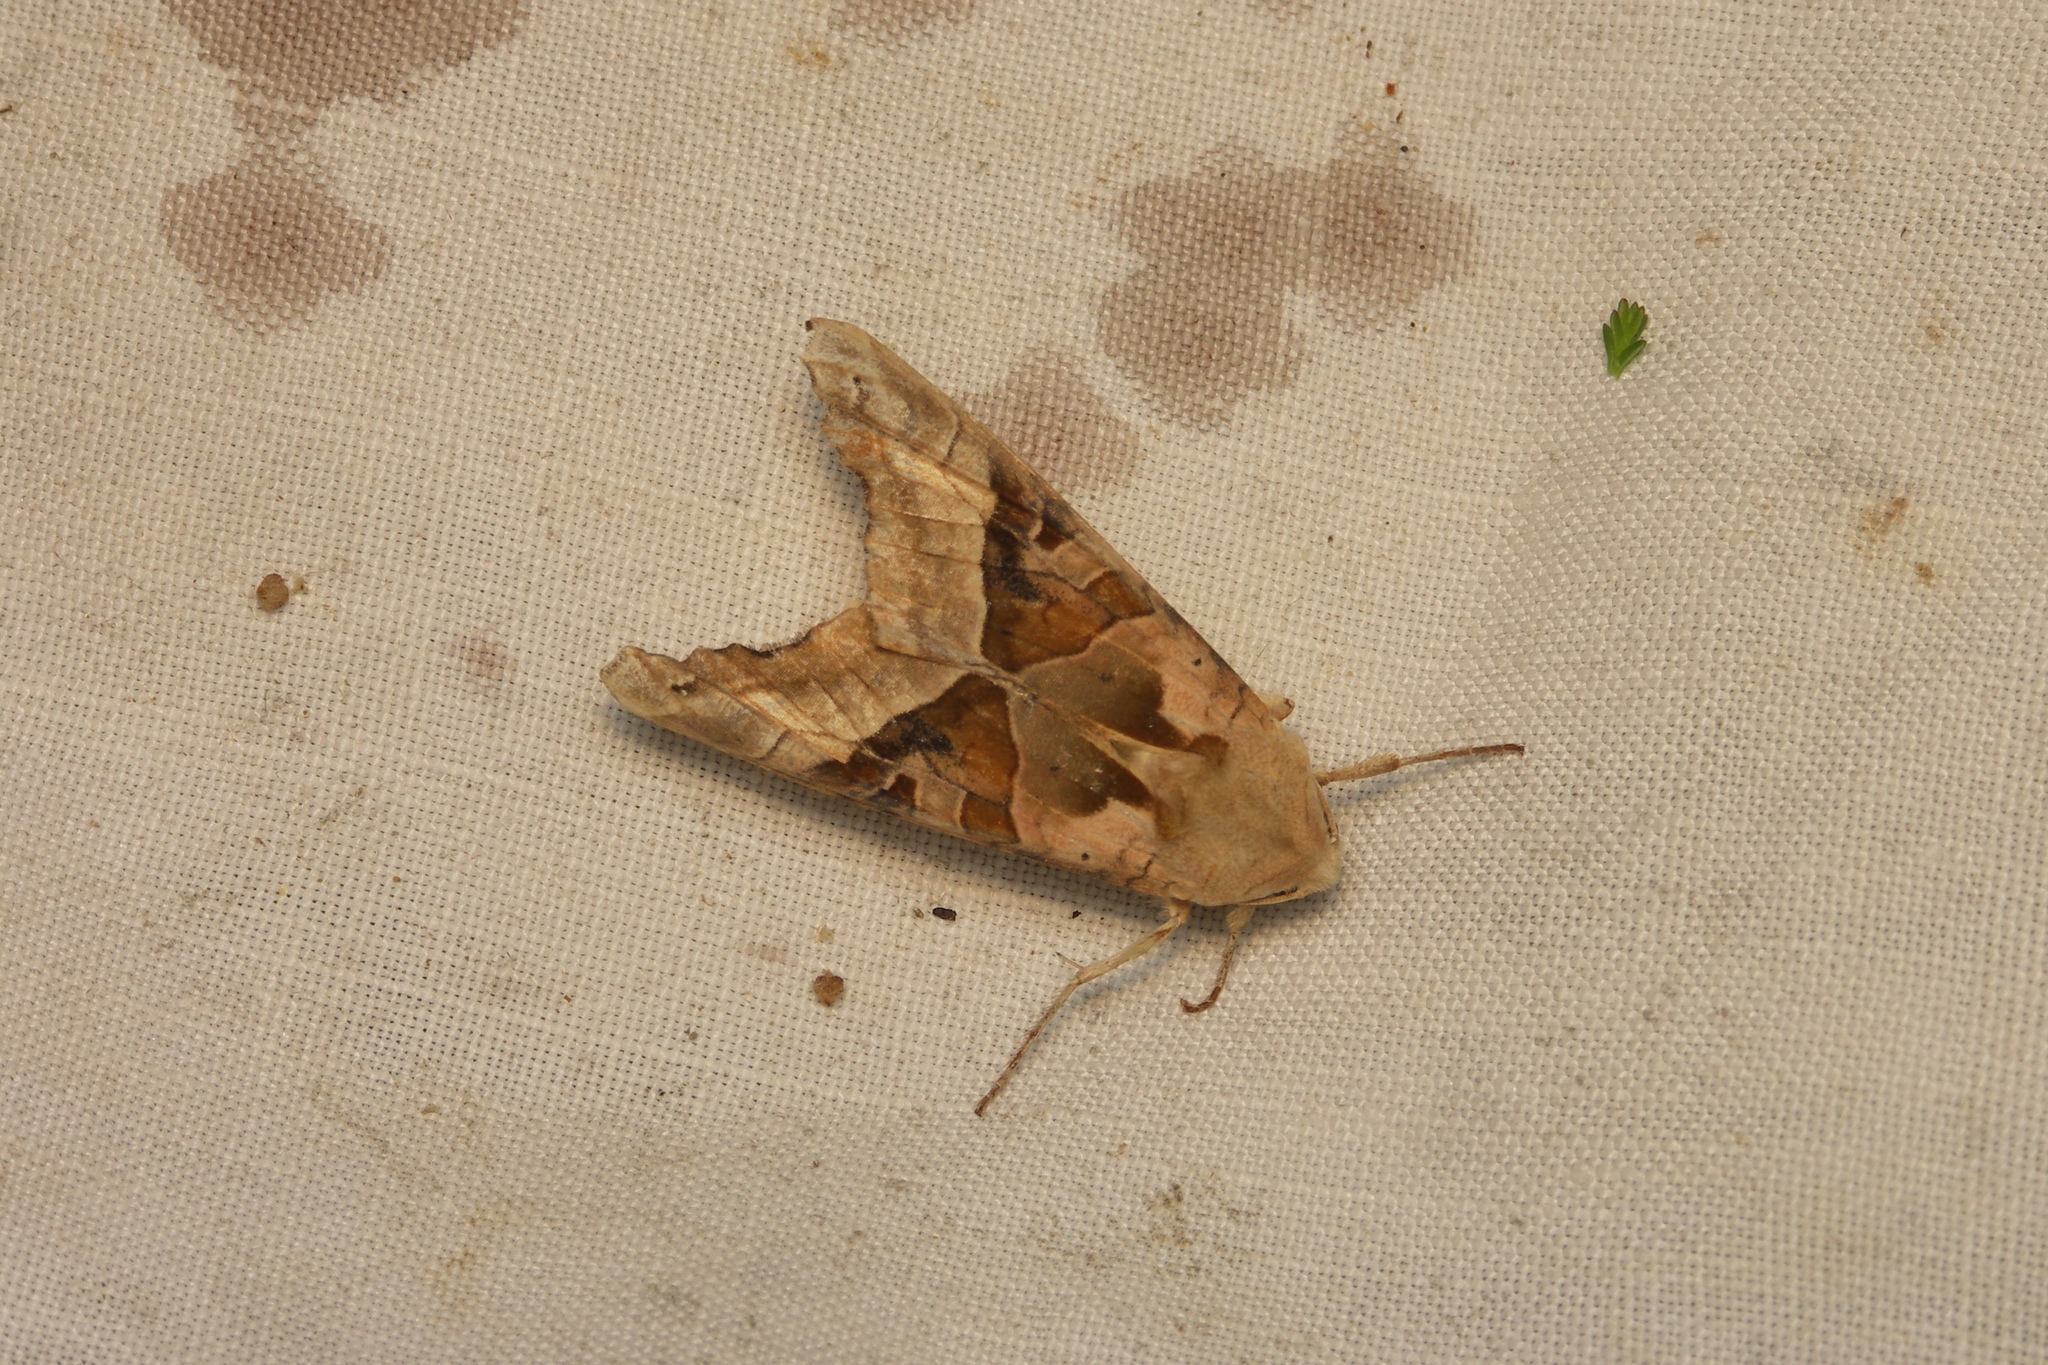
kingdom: Animalia
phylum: Arthropoda
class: Insecta
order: Lepidoptera
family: Noctuidae
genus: Phlogophora
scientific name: Phlogophora meticulosa
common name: Angle shades
